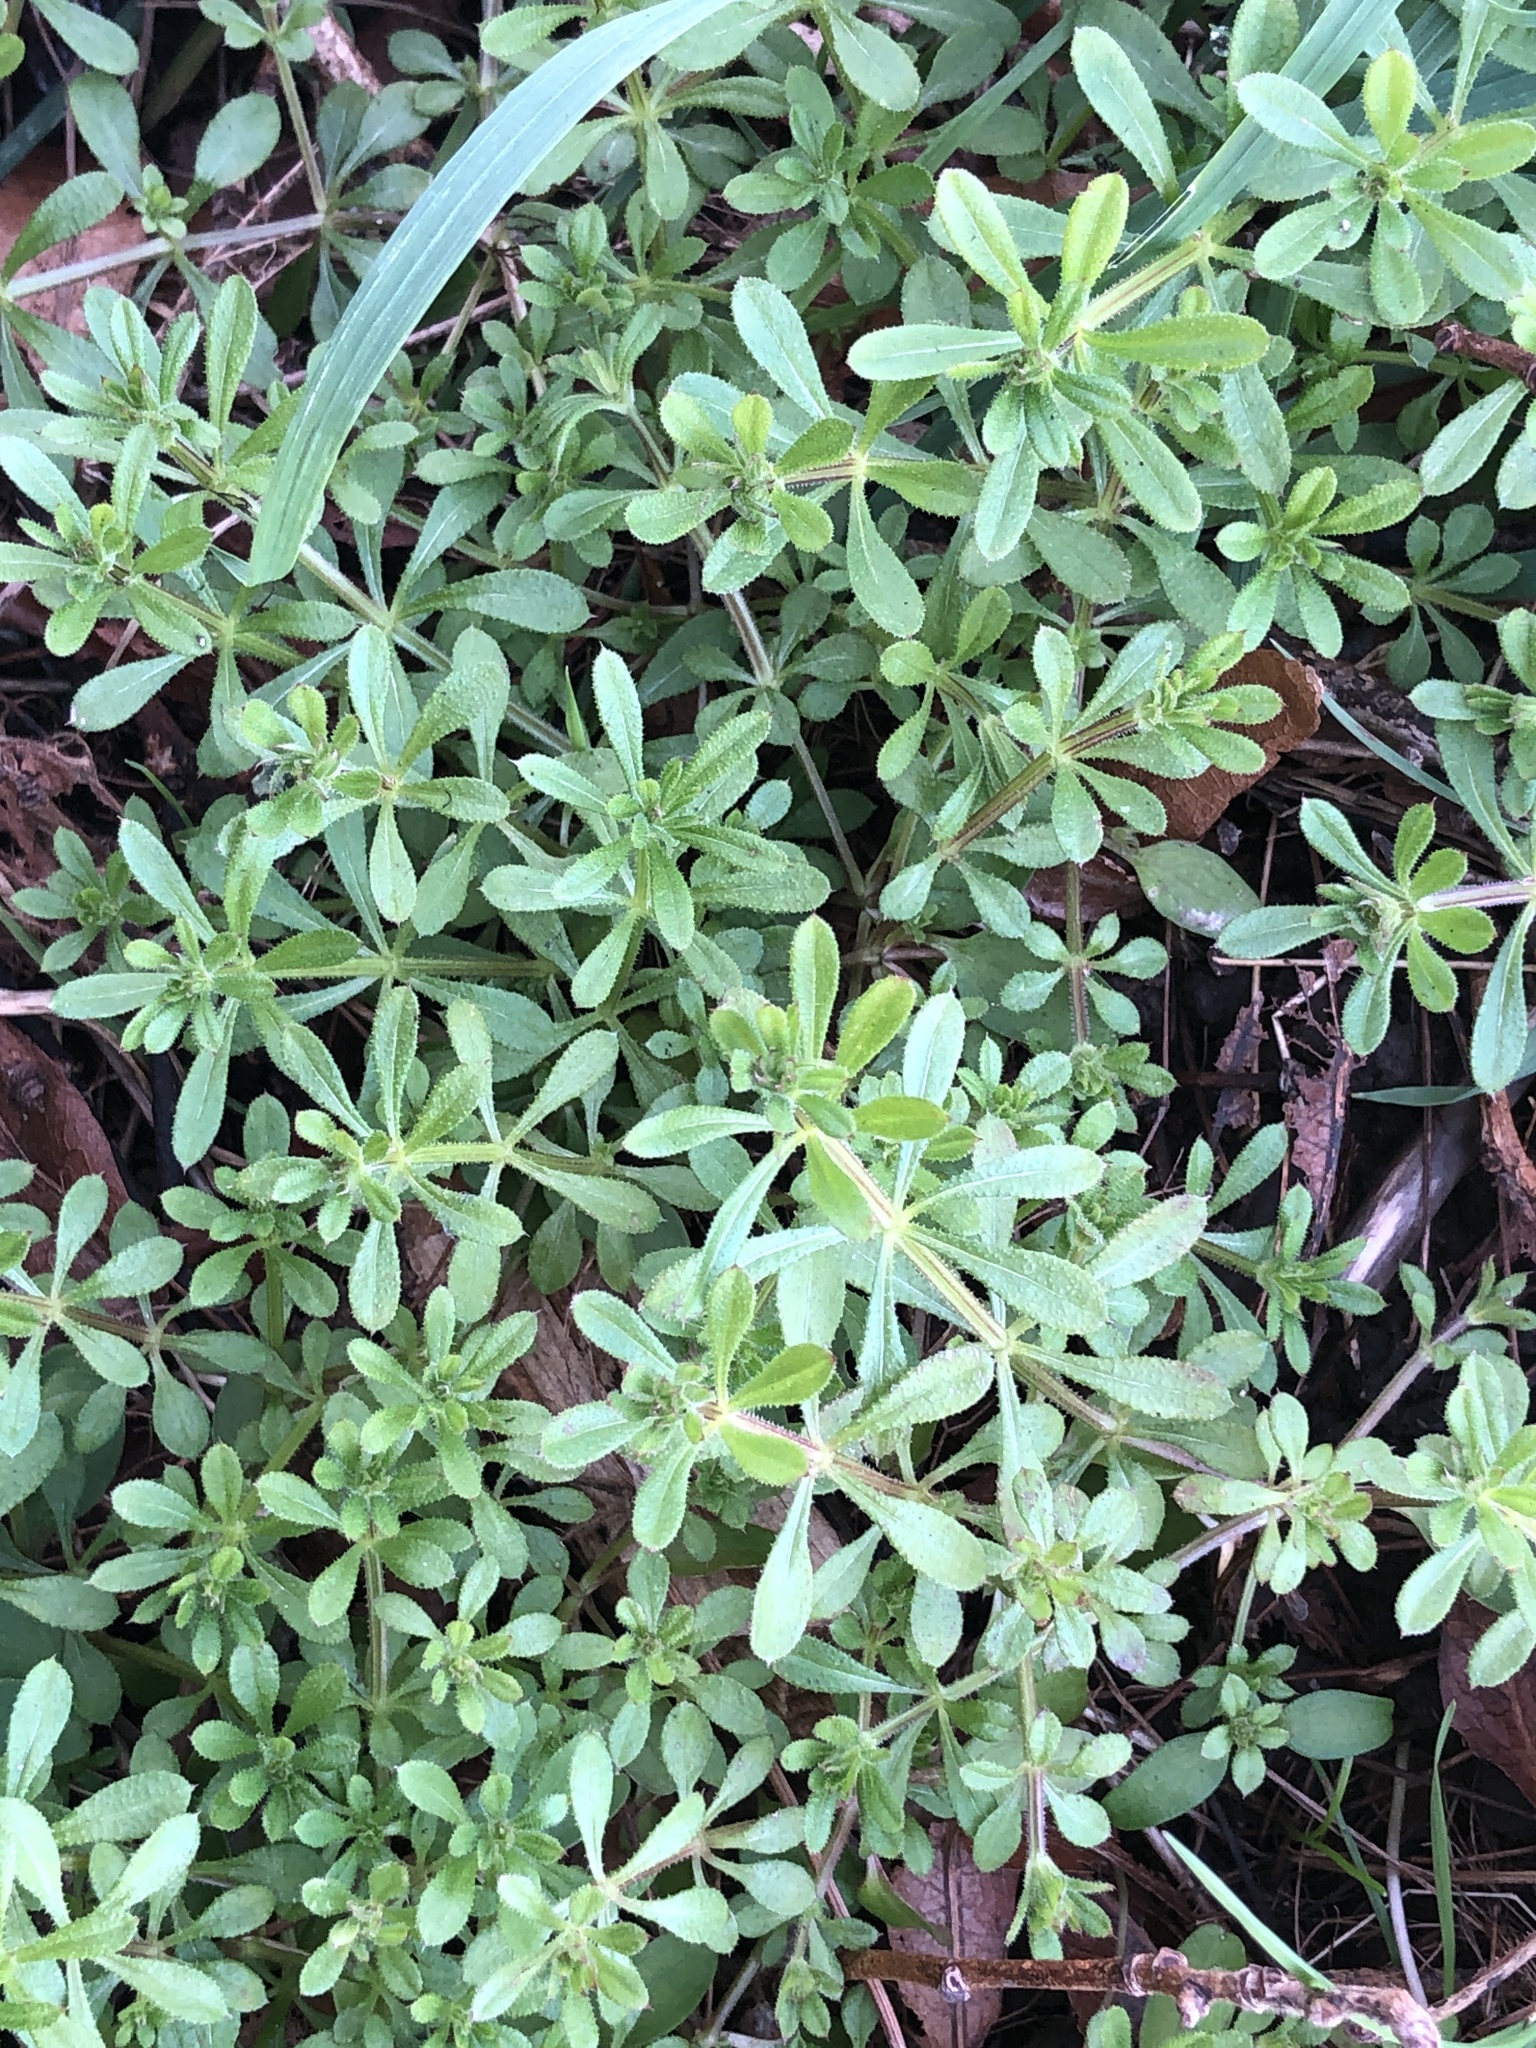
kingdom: Plantae
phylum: Tracheophyta
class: Magnoliopsida
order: Gentianales
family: Rubiaceae
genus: Galium
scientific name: Galium aparine
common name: Cleavers
